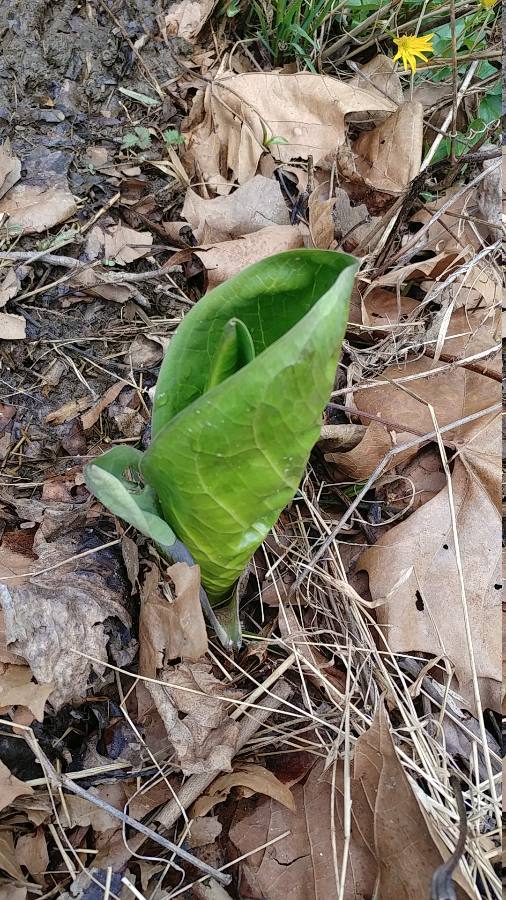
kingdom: Plantae
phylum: Tracheophyta
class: Liliopsida
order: Alismatales
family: Araceae
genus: Symplocarpus
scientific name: Symplocarpus foetidus
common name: Eastern skunk cabbage
